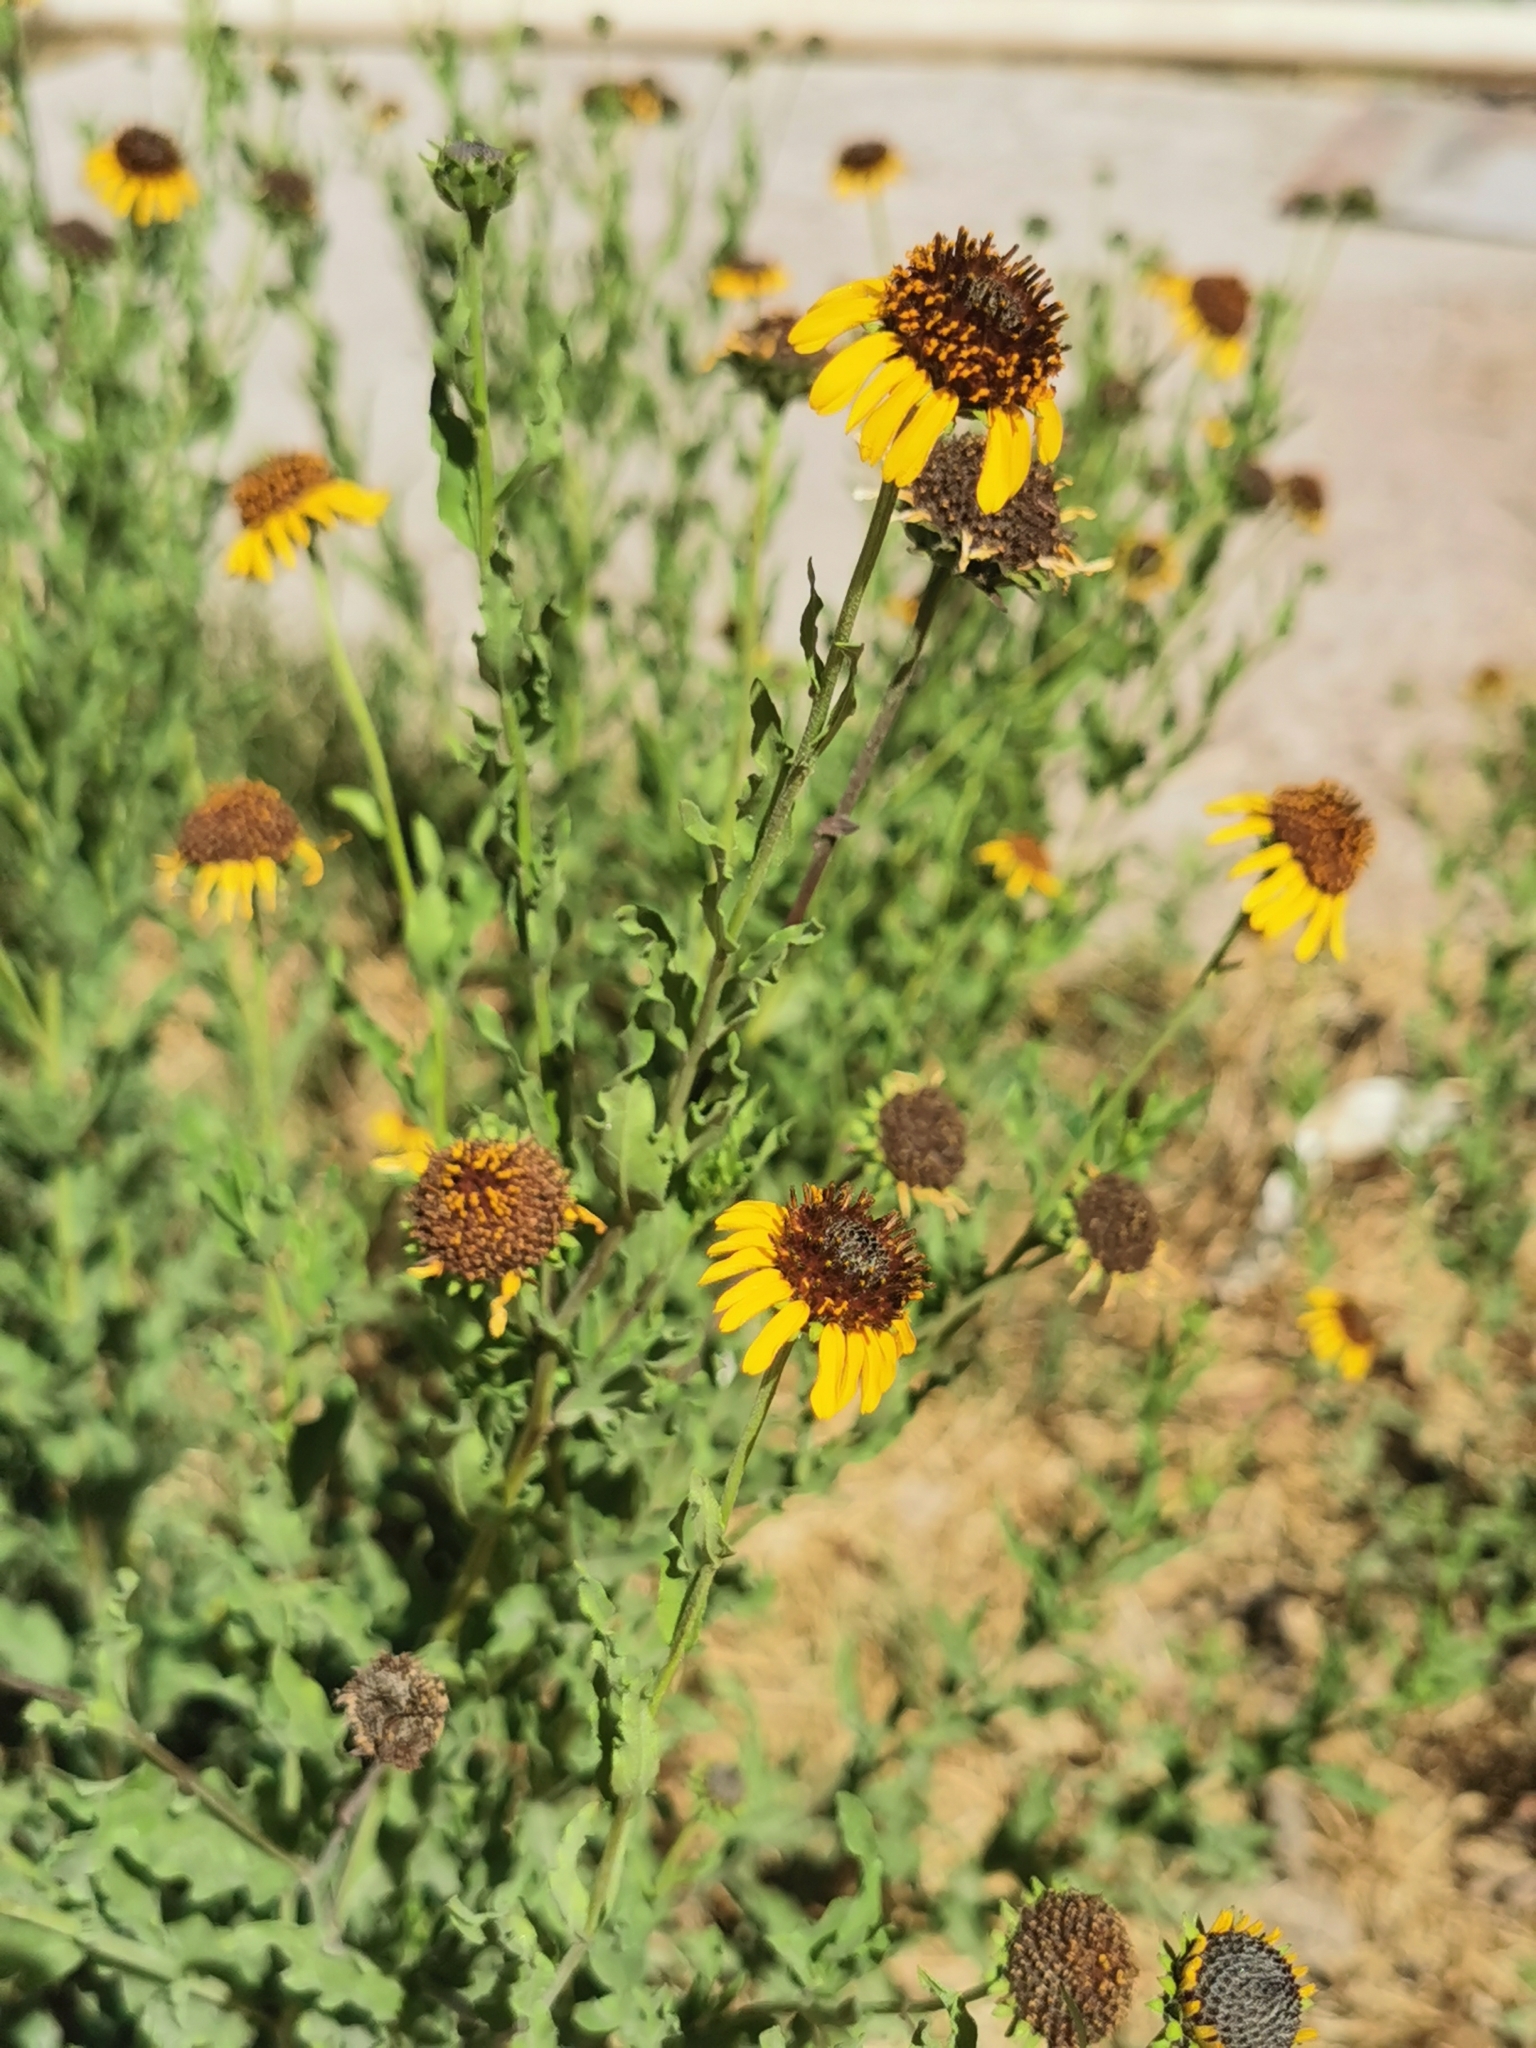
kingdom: Plantae
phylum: Tracheophyta
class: Magnoliopsida
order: Asterales
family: Asteraceae
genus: Helianthus
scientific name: Helianthus laciniatus
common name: Jagged-edge sunflower
